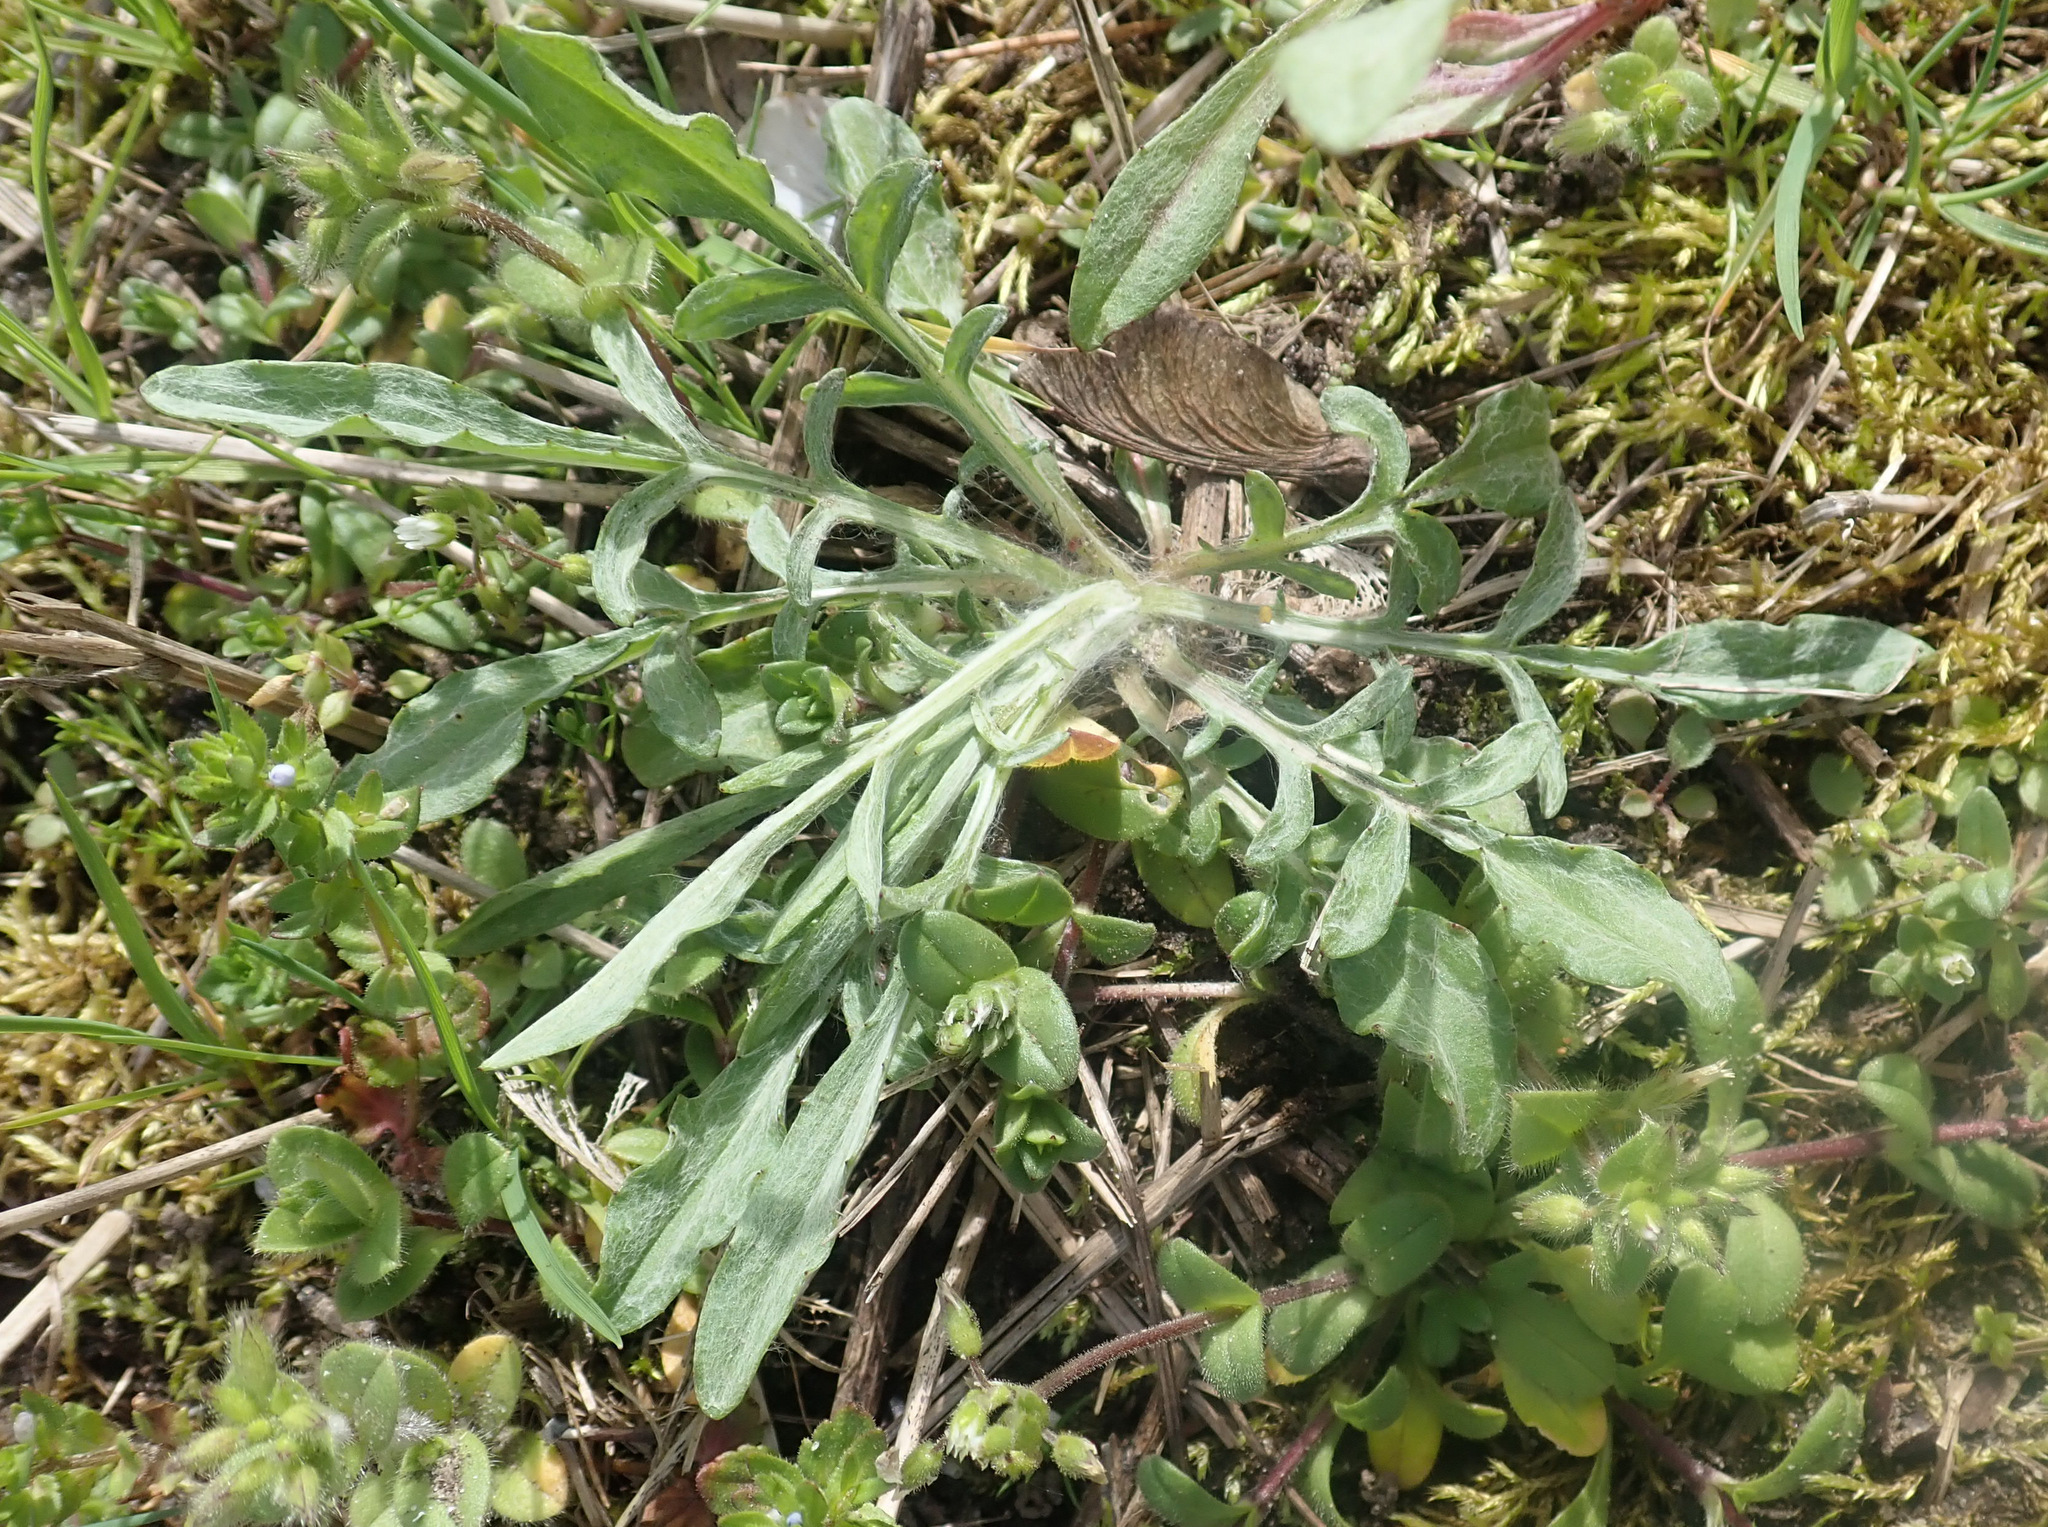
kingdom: Plantae
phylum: Tracheophyta
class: Magnoliopsida
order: Asterales
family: Asteraceae
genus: Centaurea
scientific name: Centaurea cyanus
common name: Cornflower
